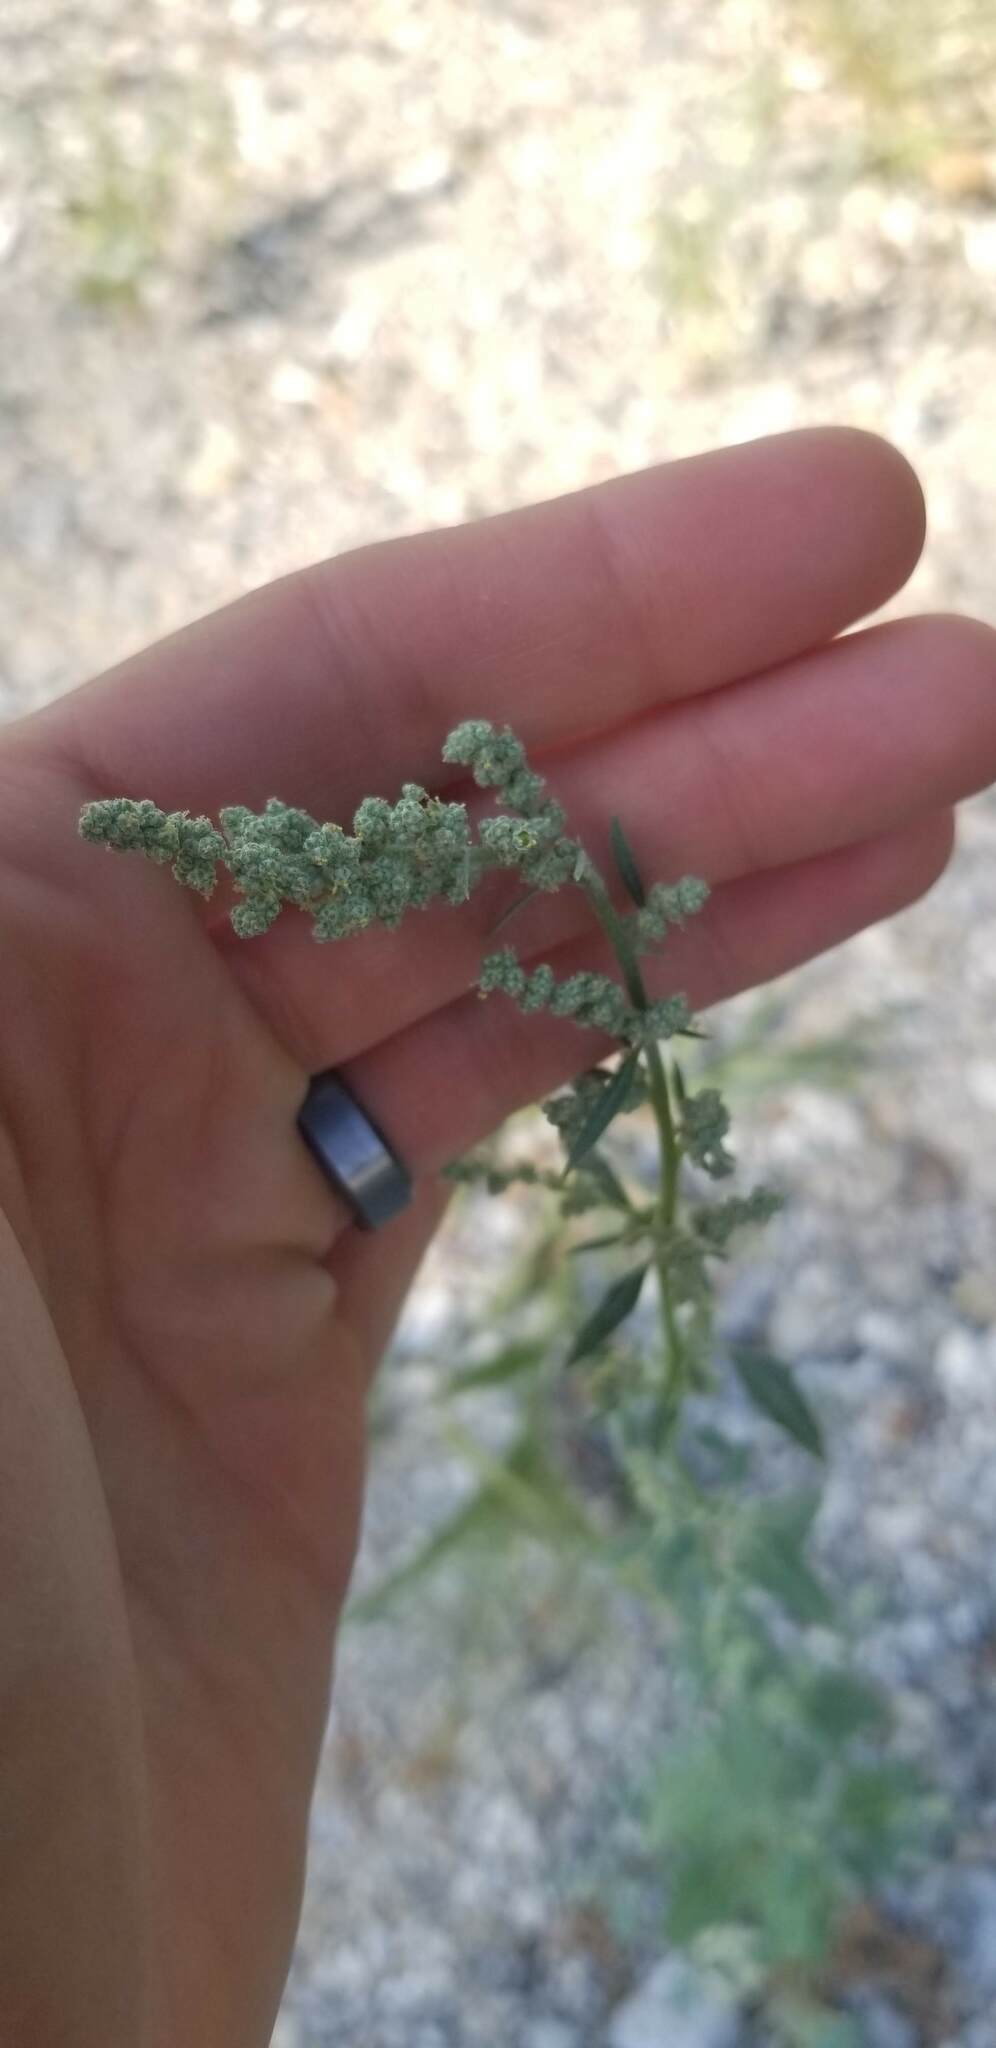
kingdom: Plantae
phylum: Tracheophyta
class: Magnoliopsida
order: Caryophyllales
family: Amaranthaceae
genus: Chenopodium
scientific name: Chenopodium album
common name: Fat-hen
